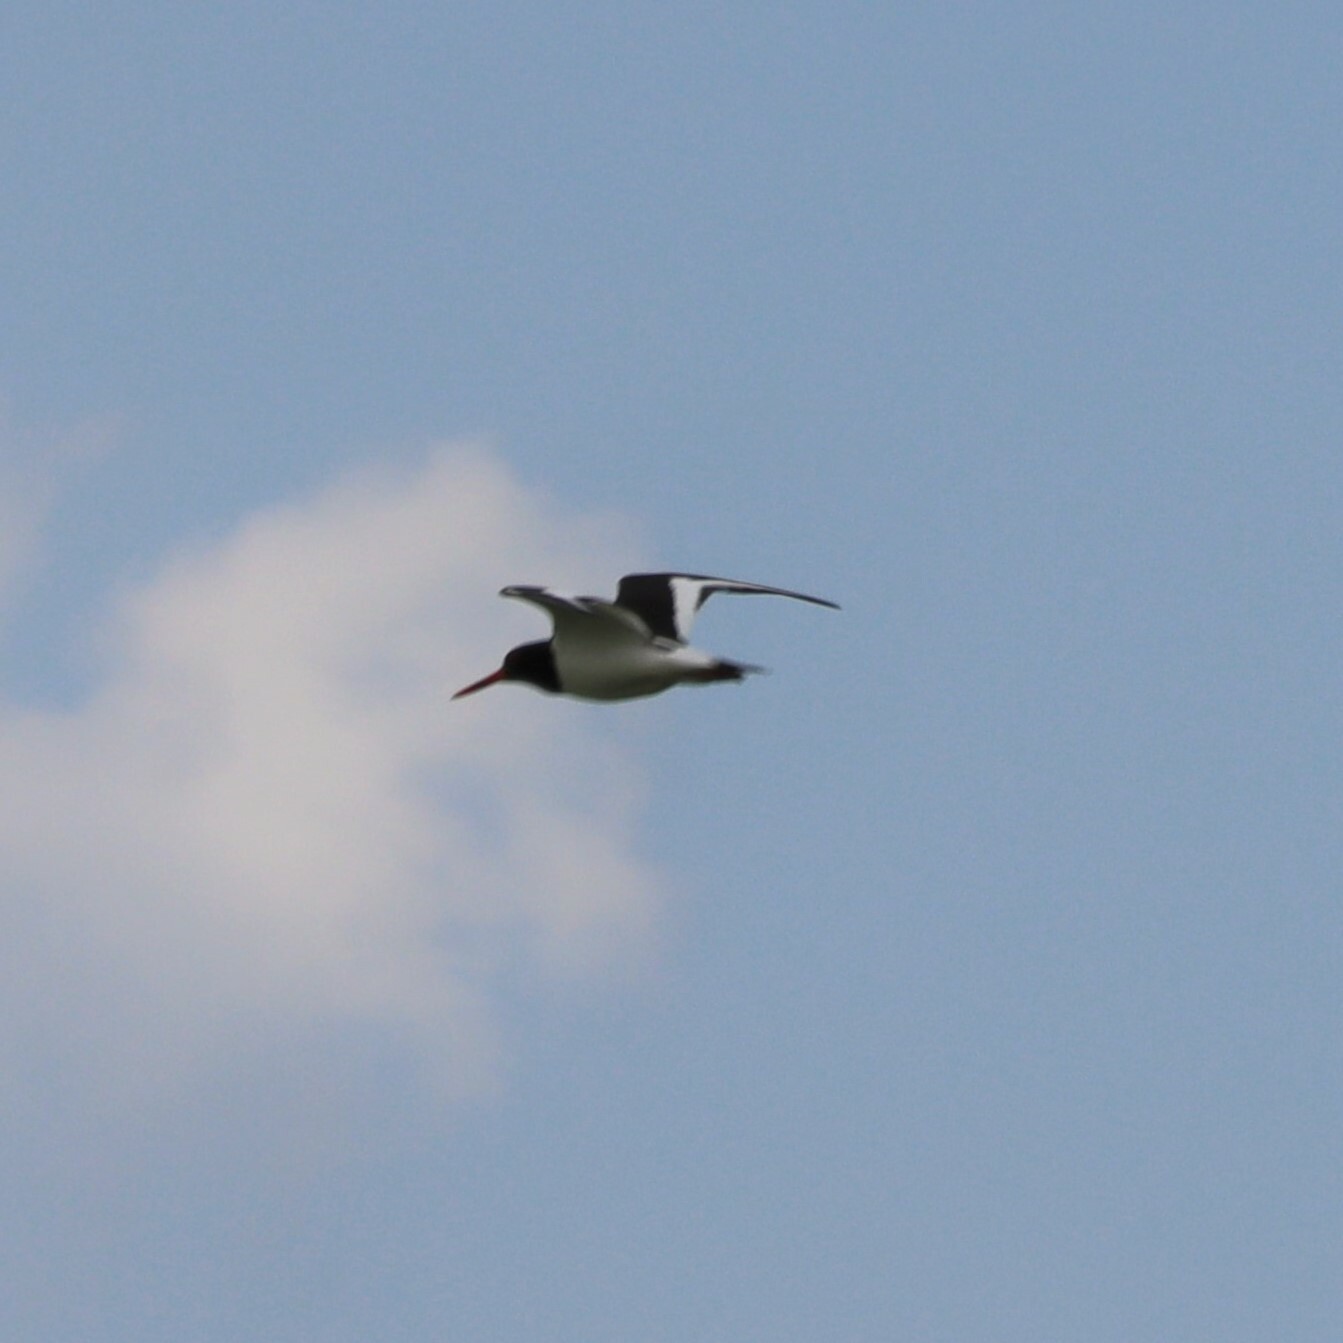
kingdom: Animalia
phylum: Chordata
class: Aves
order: Charadriiformes
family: Haematopodidae
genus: Haematopus
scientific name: Haematopus ostralegus
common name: Eurasian oystercatcher
